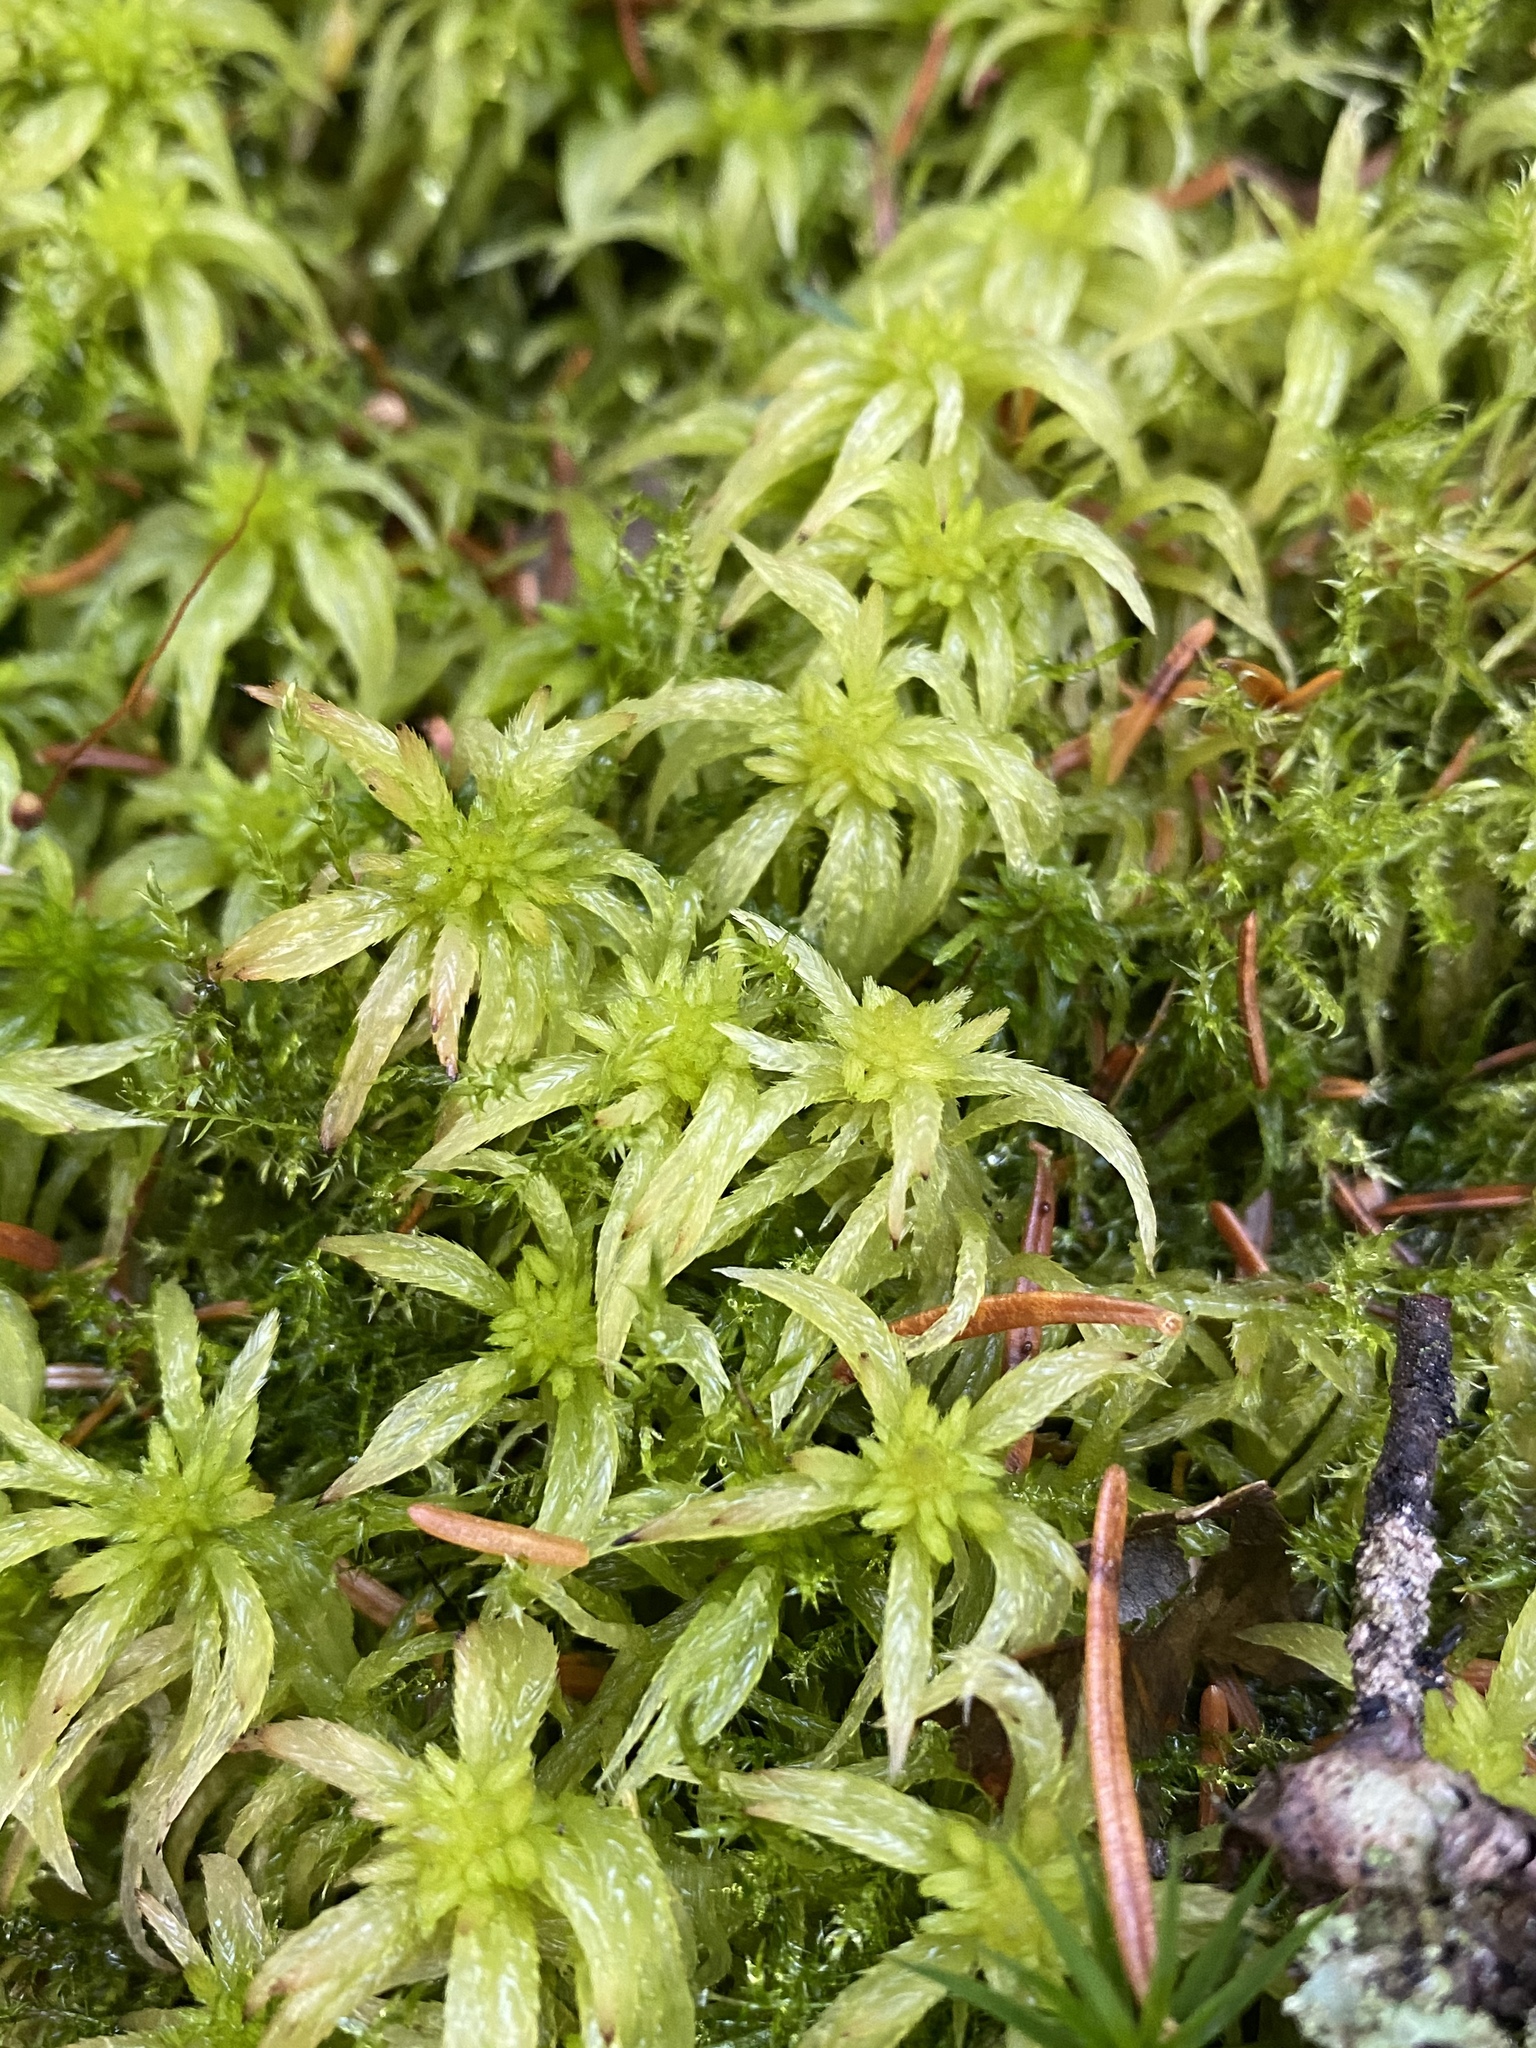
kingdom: Plantae
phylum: Bryophyta
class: Sphagnopsida
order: Sphagnales
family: Sphagnaceae
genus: Sphagnum
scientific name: Sphagnum riparium
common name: Streamside peat moss
